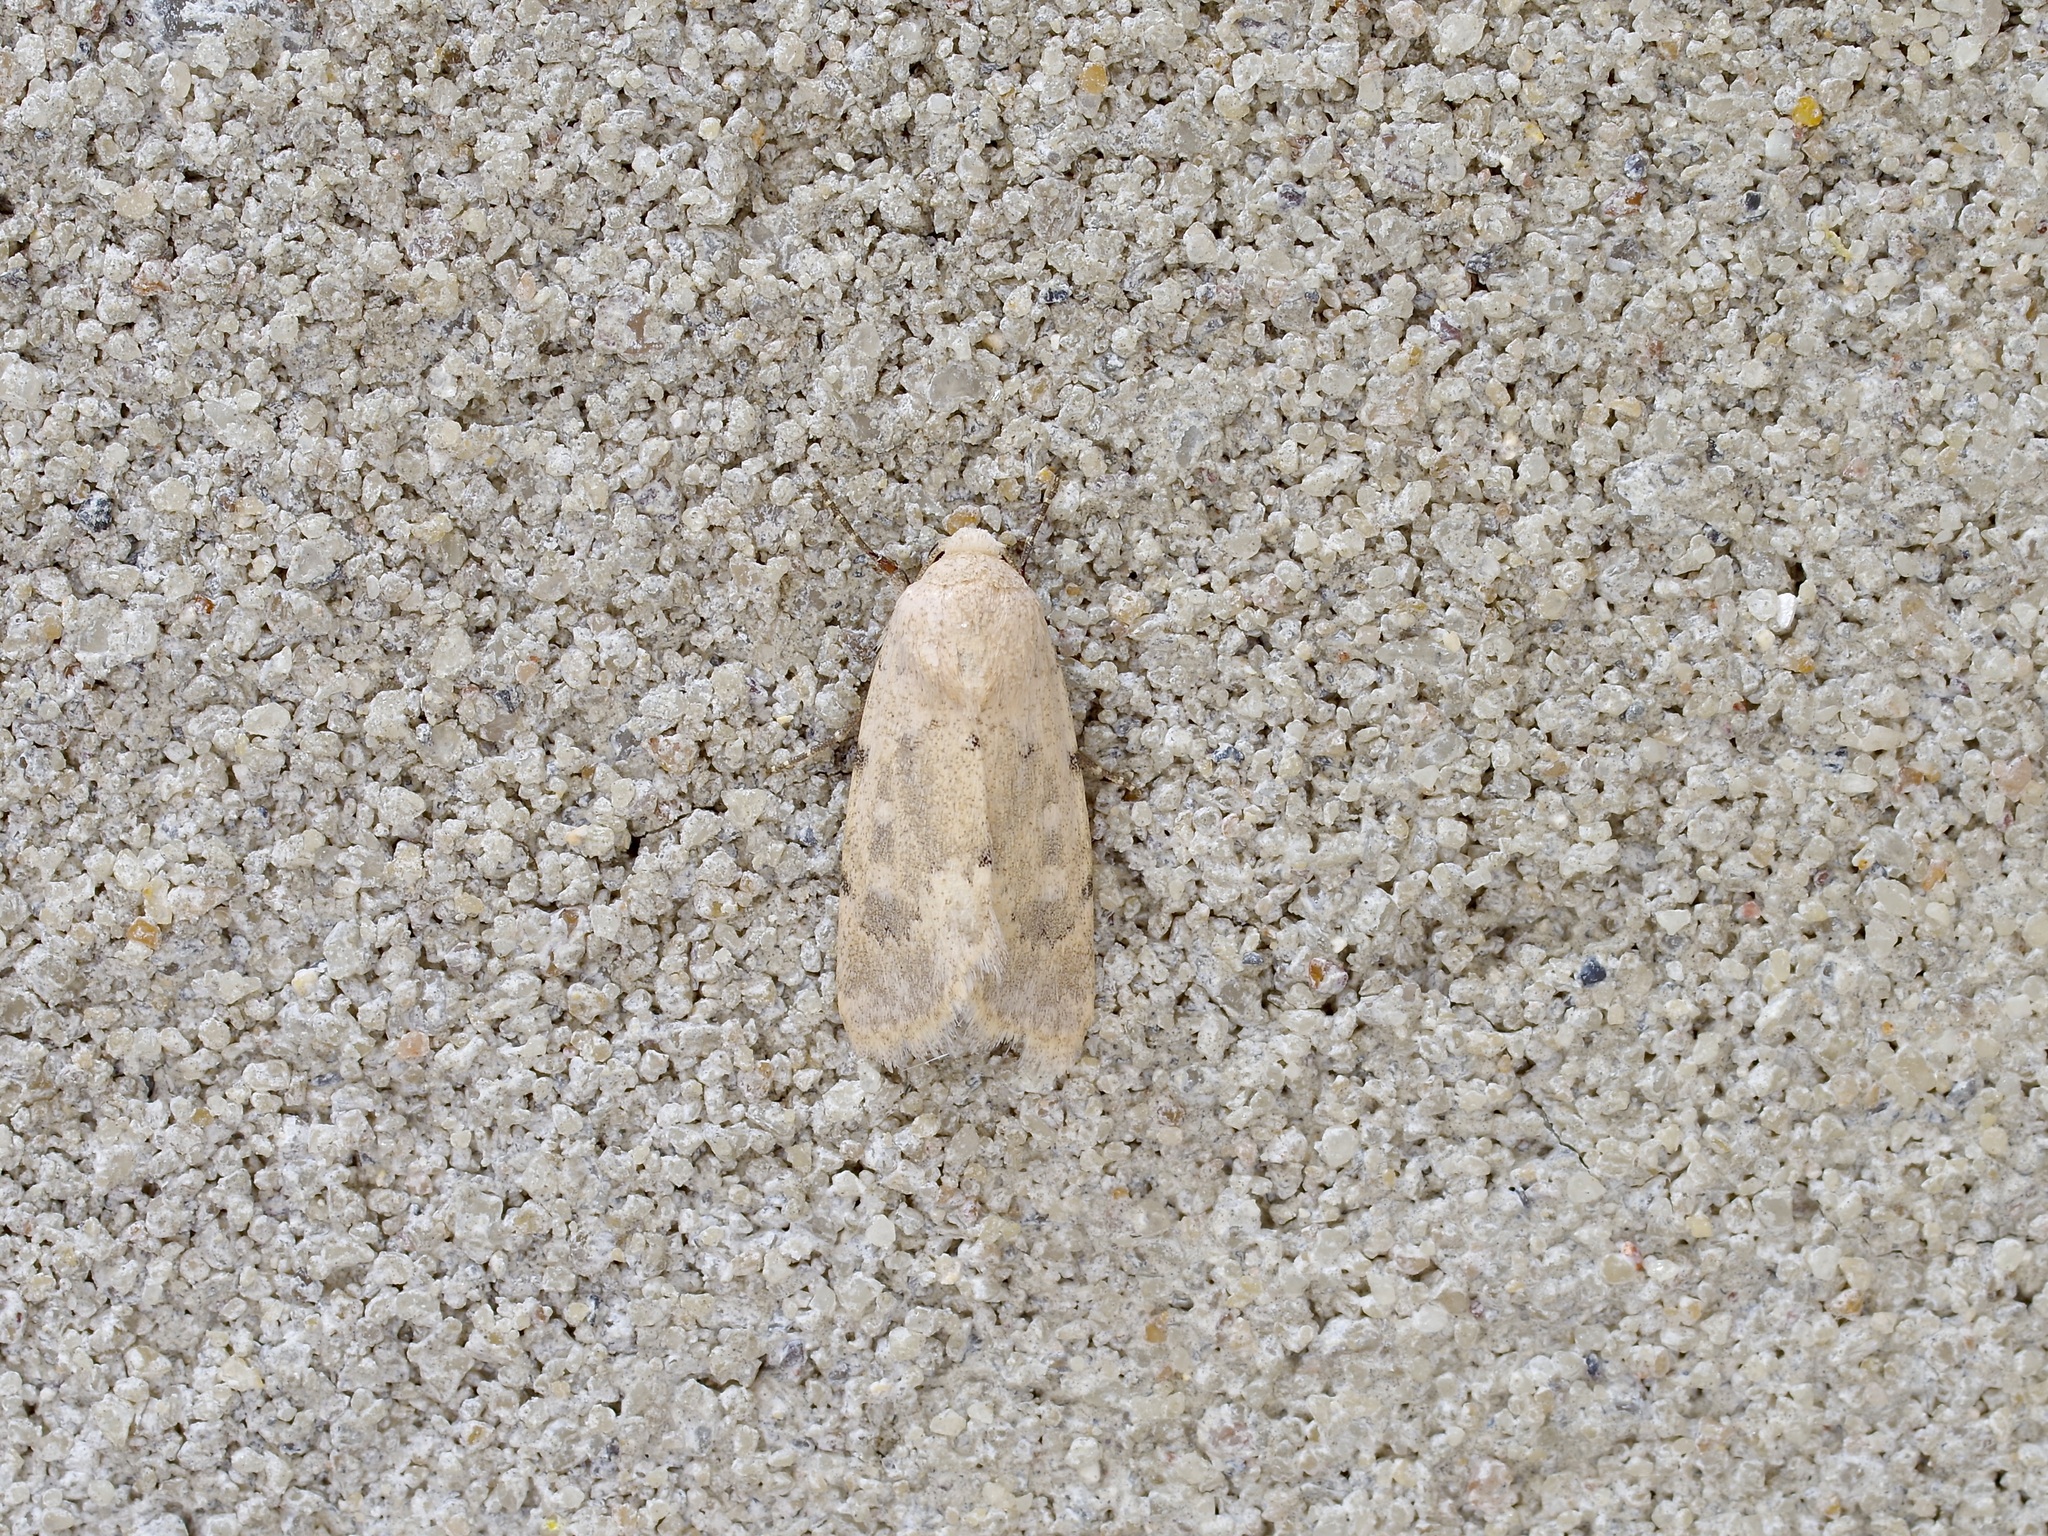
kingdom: Animalia
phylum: Arthropoda
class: Insecta
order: Lepidoptera
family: Noctuidae
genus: Leucocnemis
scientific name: Leucocnemis perfundis
